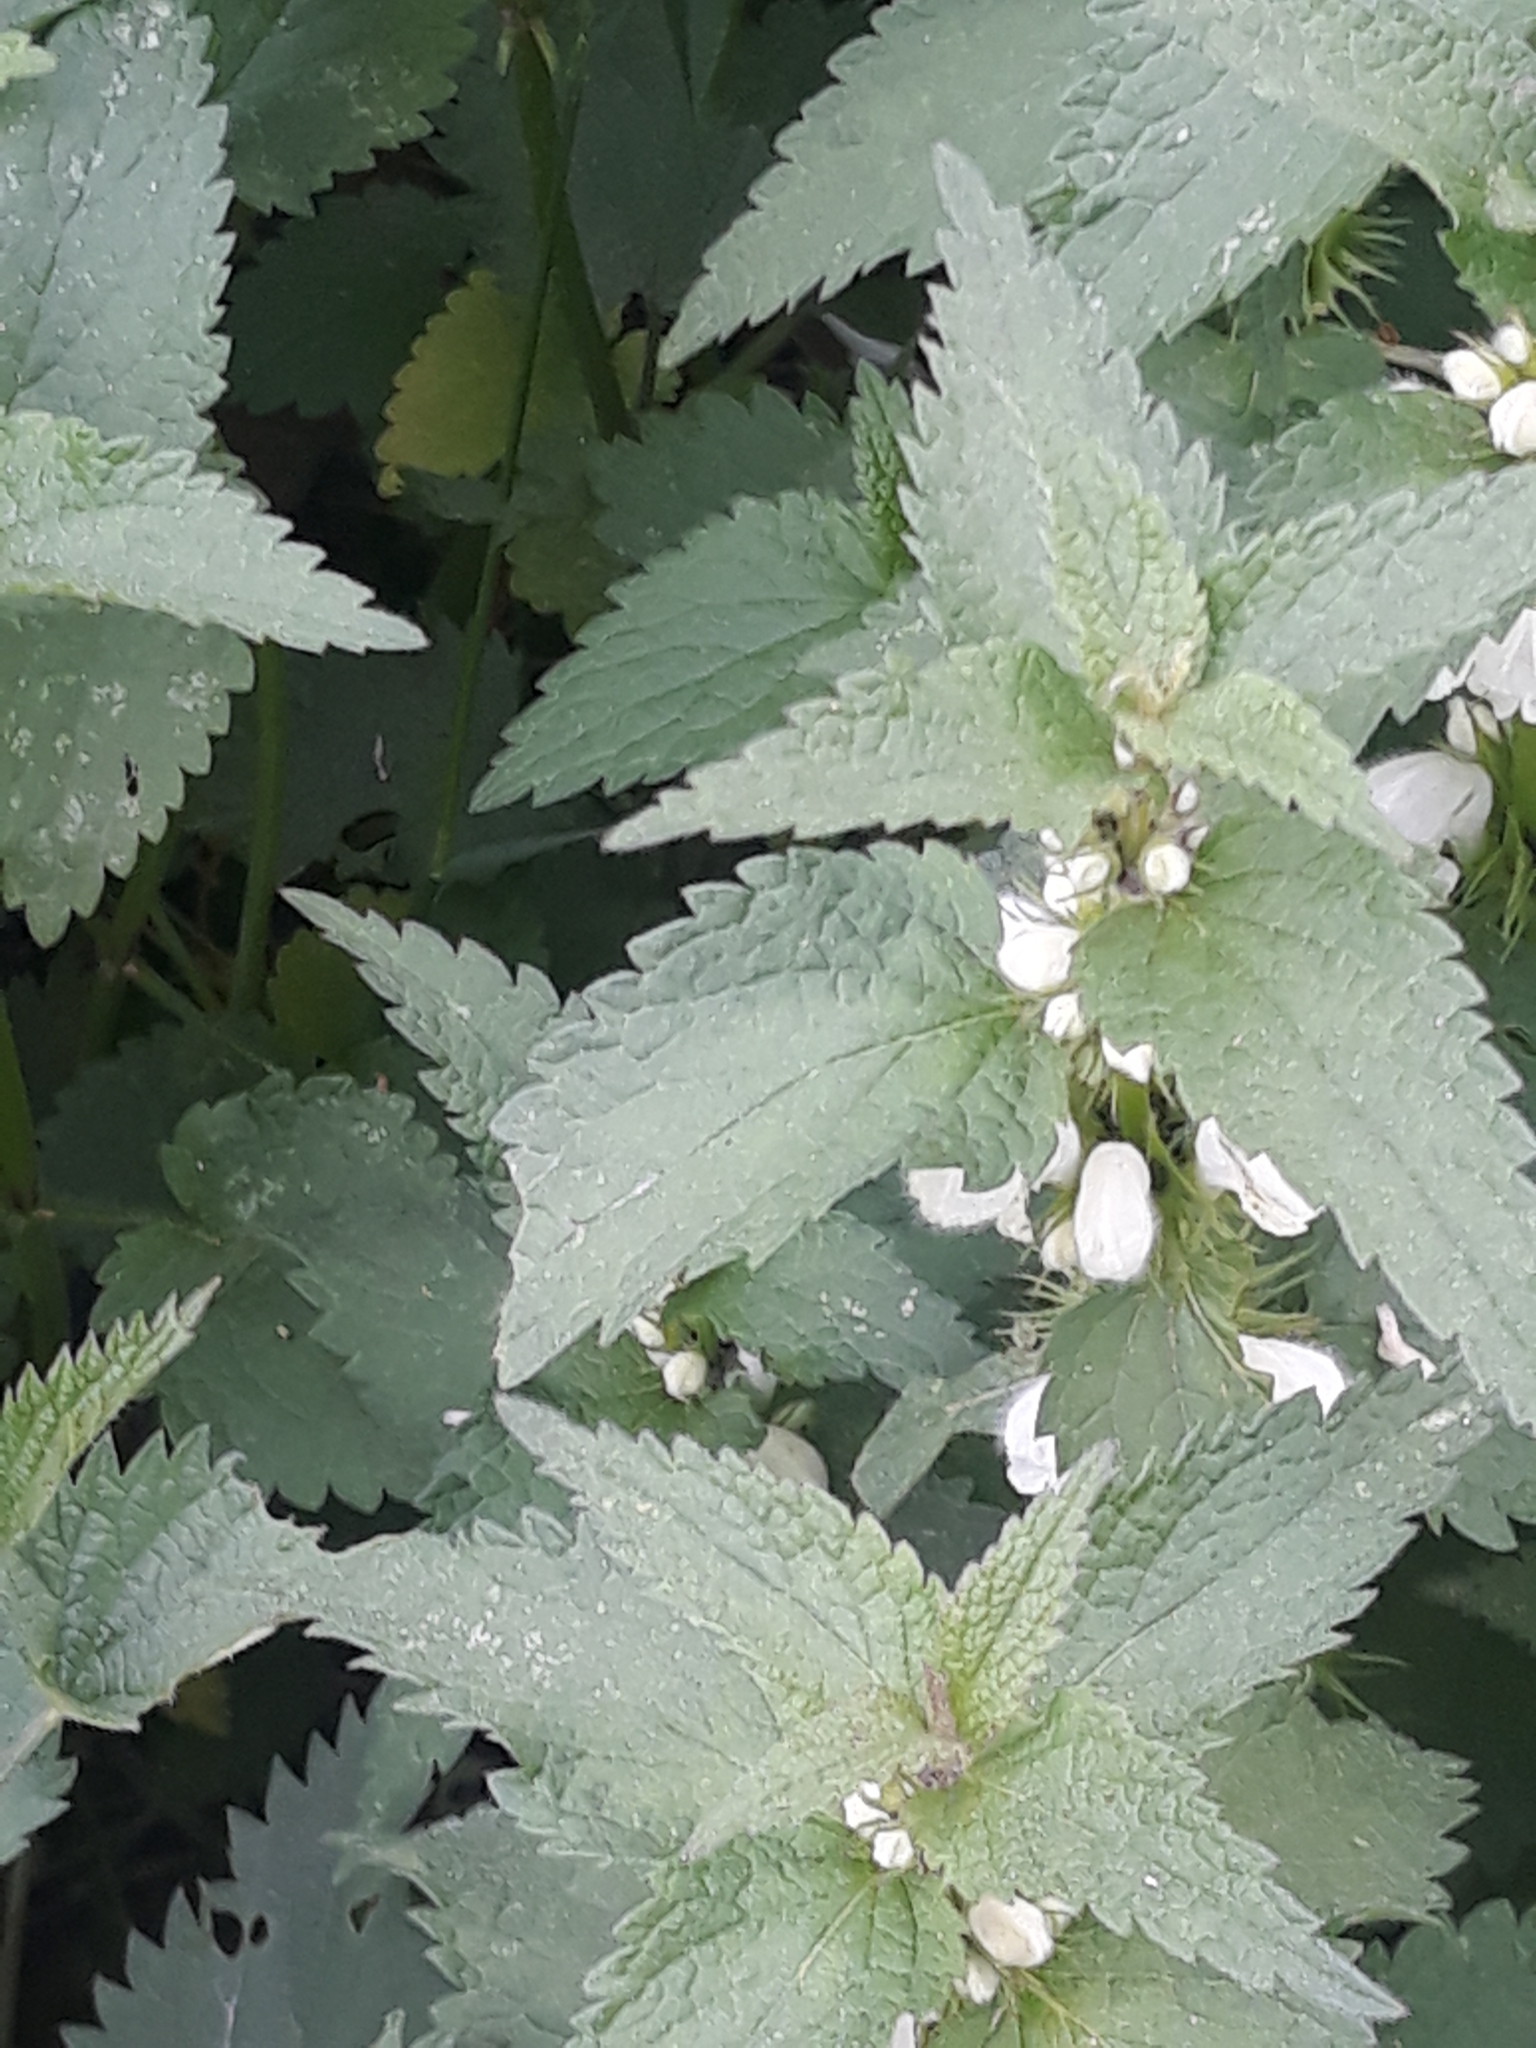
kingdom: Plantae
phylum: Tracheophyta
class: Magnoliopsida
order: Lamiales
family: Lamiaceae
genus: Lamium
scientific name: Lamium album
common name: White dead-nettle
